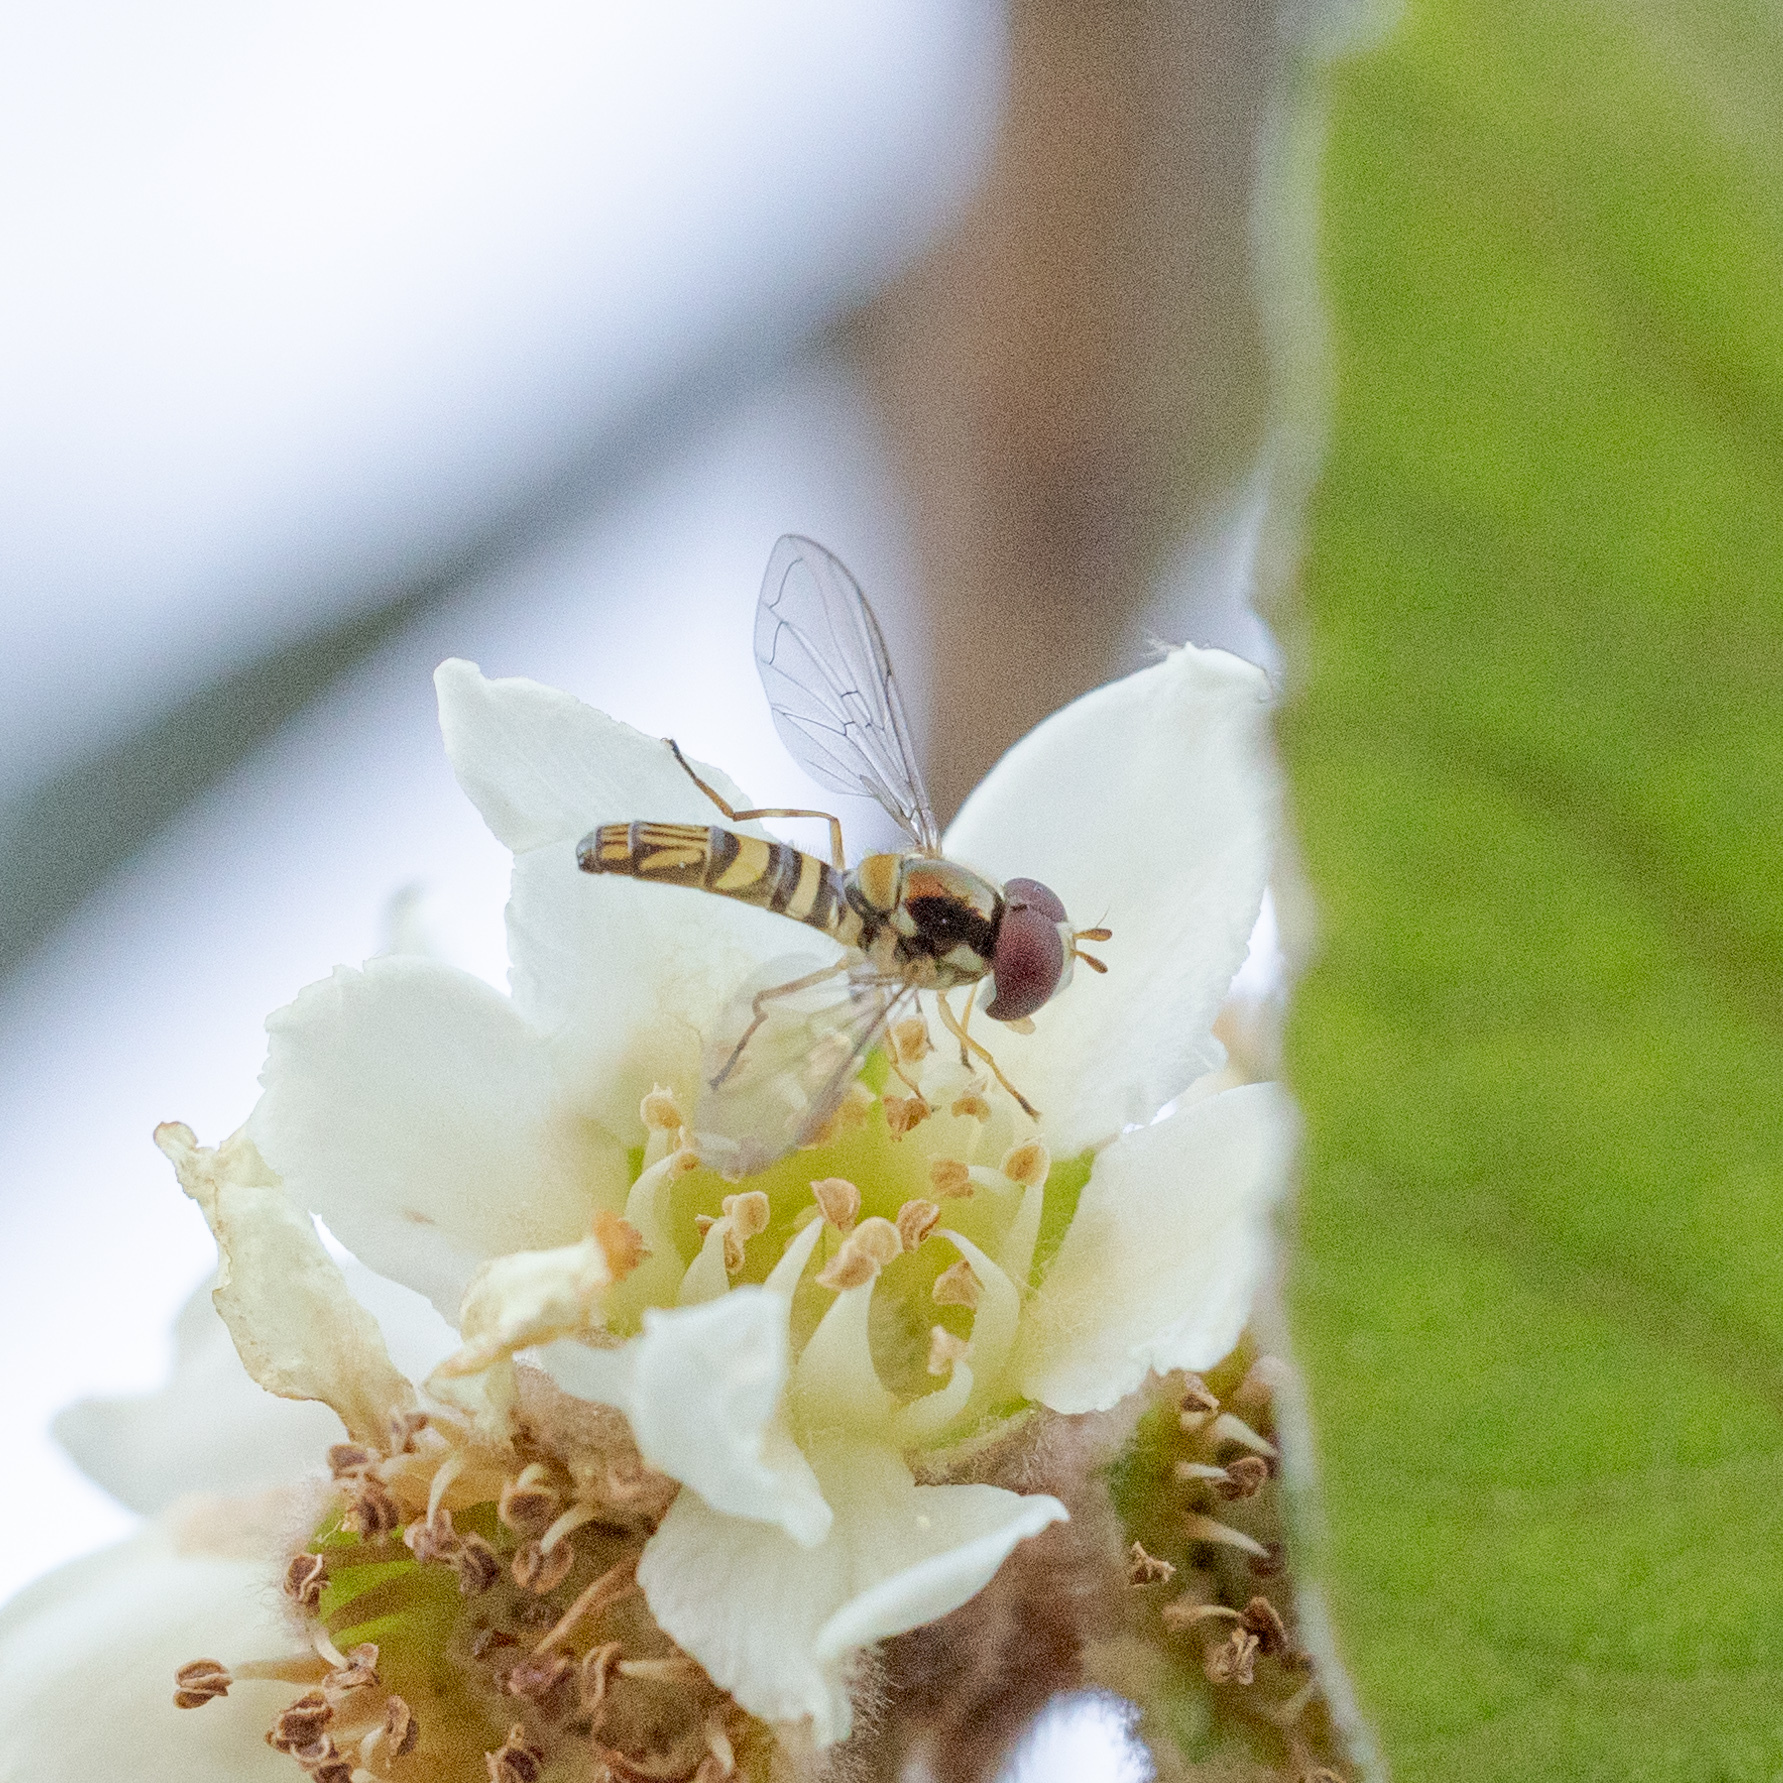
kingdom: Animalia
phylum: Arthropoda
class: Insecta
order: Diptera
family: Syrphidae
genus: Allograpta
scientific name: Allograpta obliqua
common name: Common oblique syrphid
